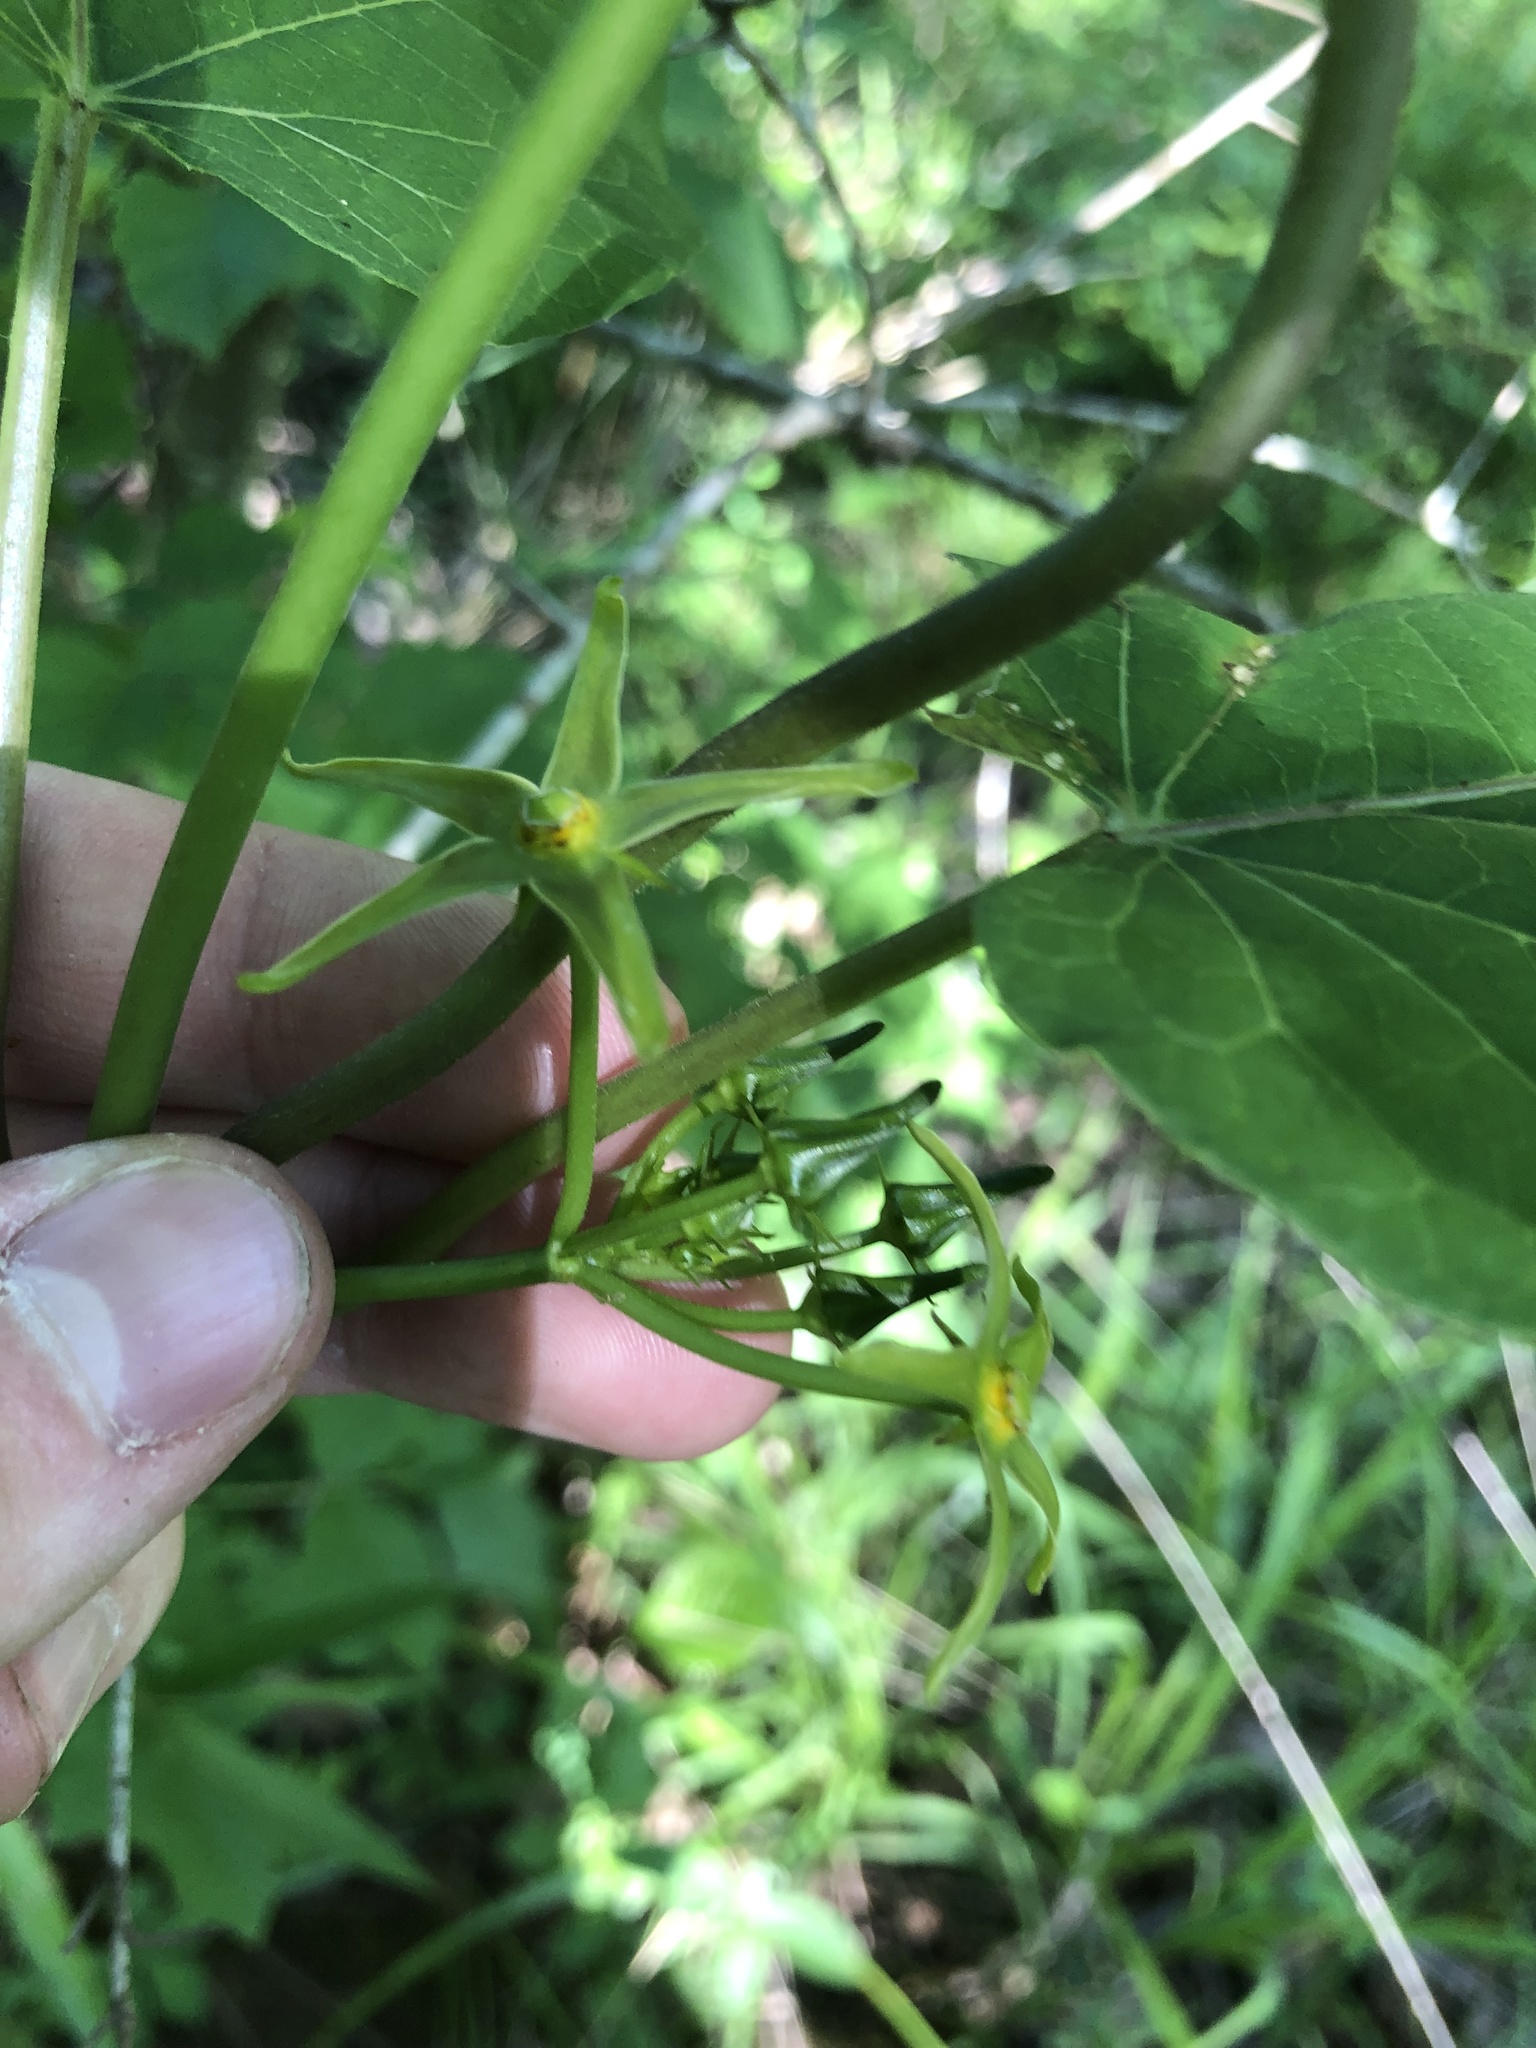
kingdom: Plantae
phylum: Tracheophyta
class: Magnoliopsida
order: Gentianales
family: Apocynaceae
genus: Gonolobus
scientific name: Gonolobus suberosus
